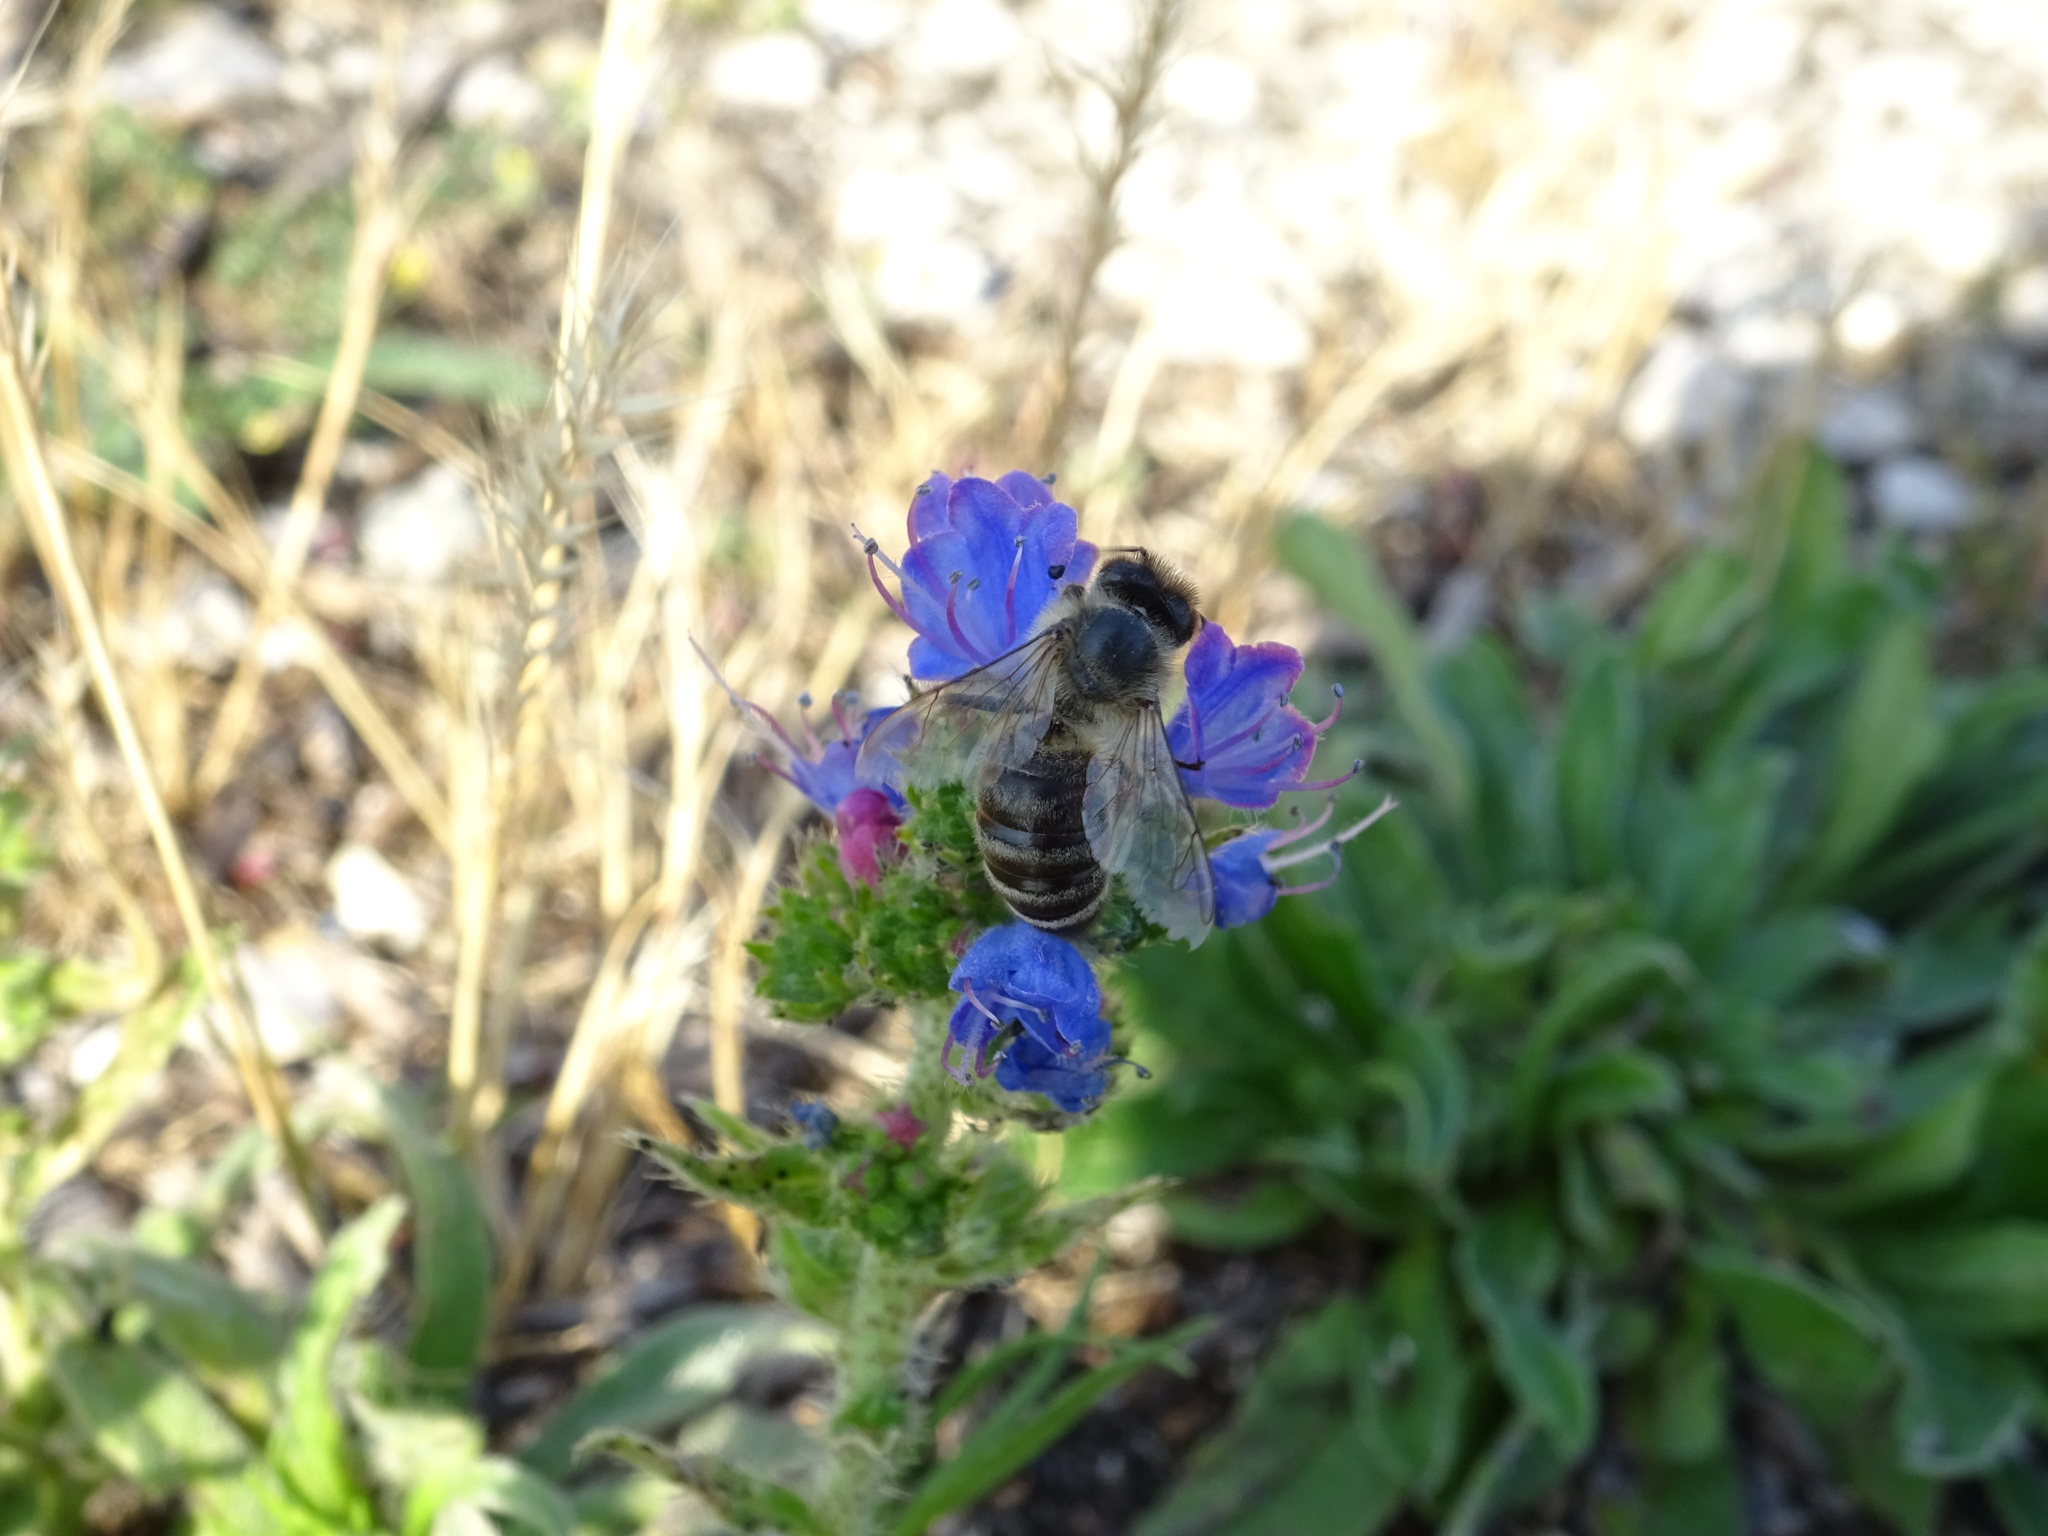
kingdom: Animalia
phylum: Arthropoda
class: Insecta
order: Hymenoptera
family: Apidae
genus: Apis
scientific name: Apis mellifera
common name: Honey bee
